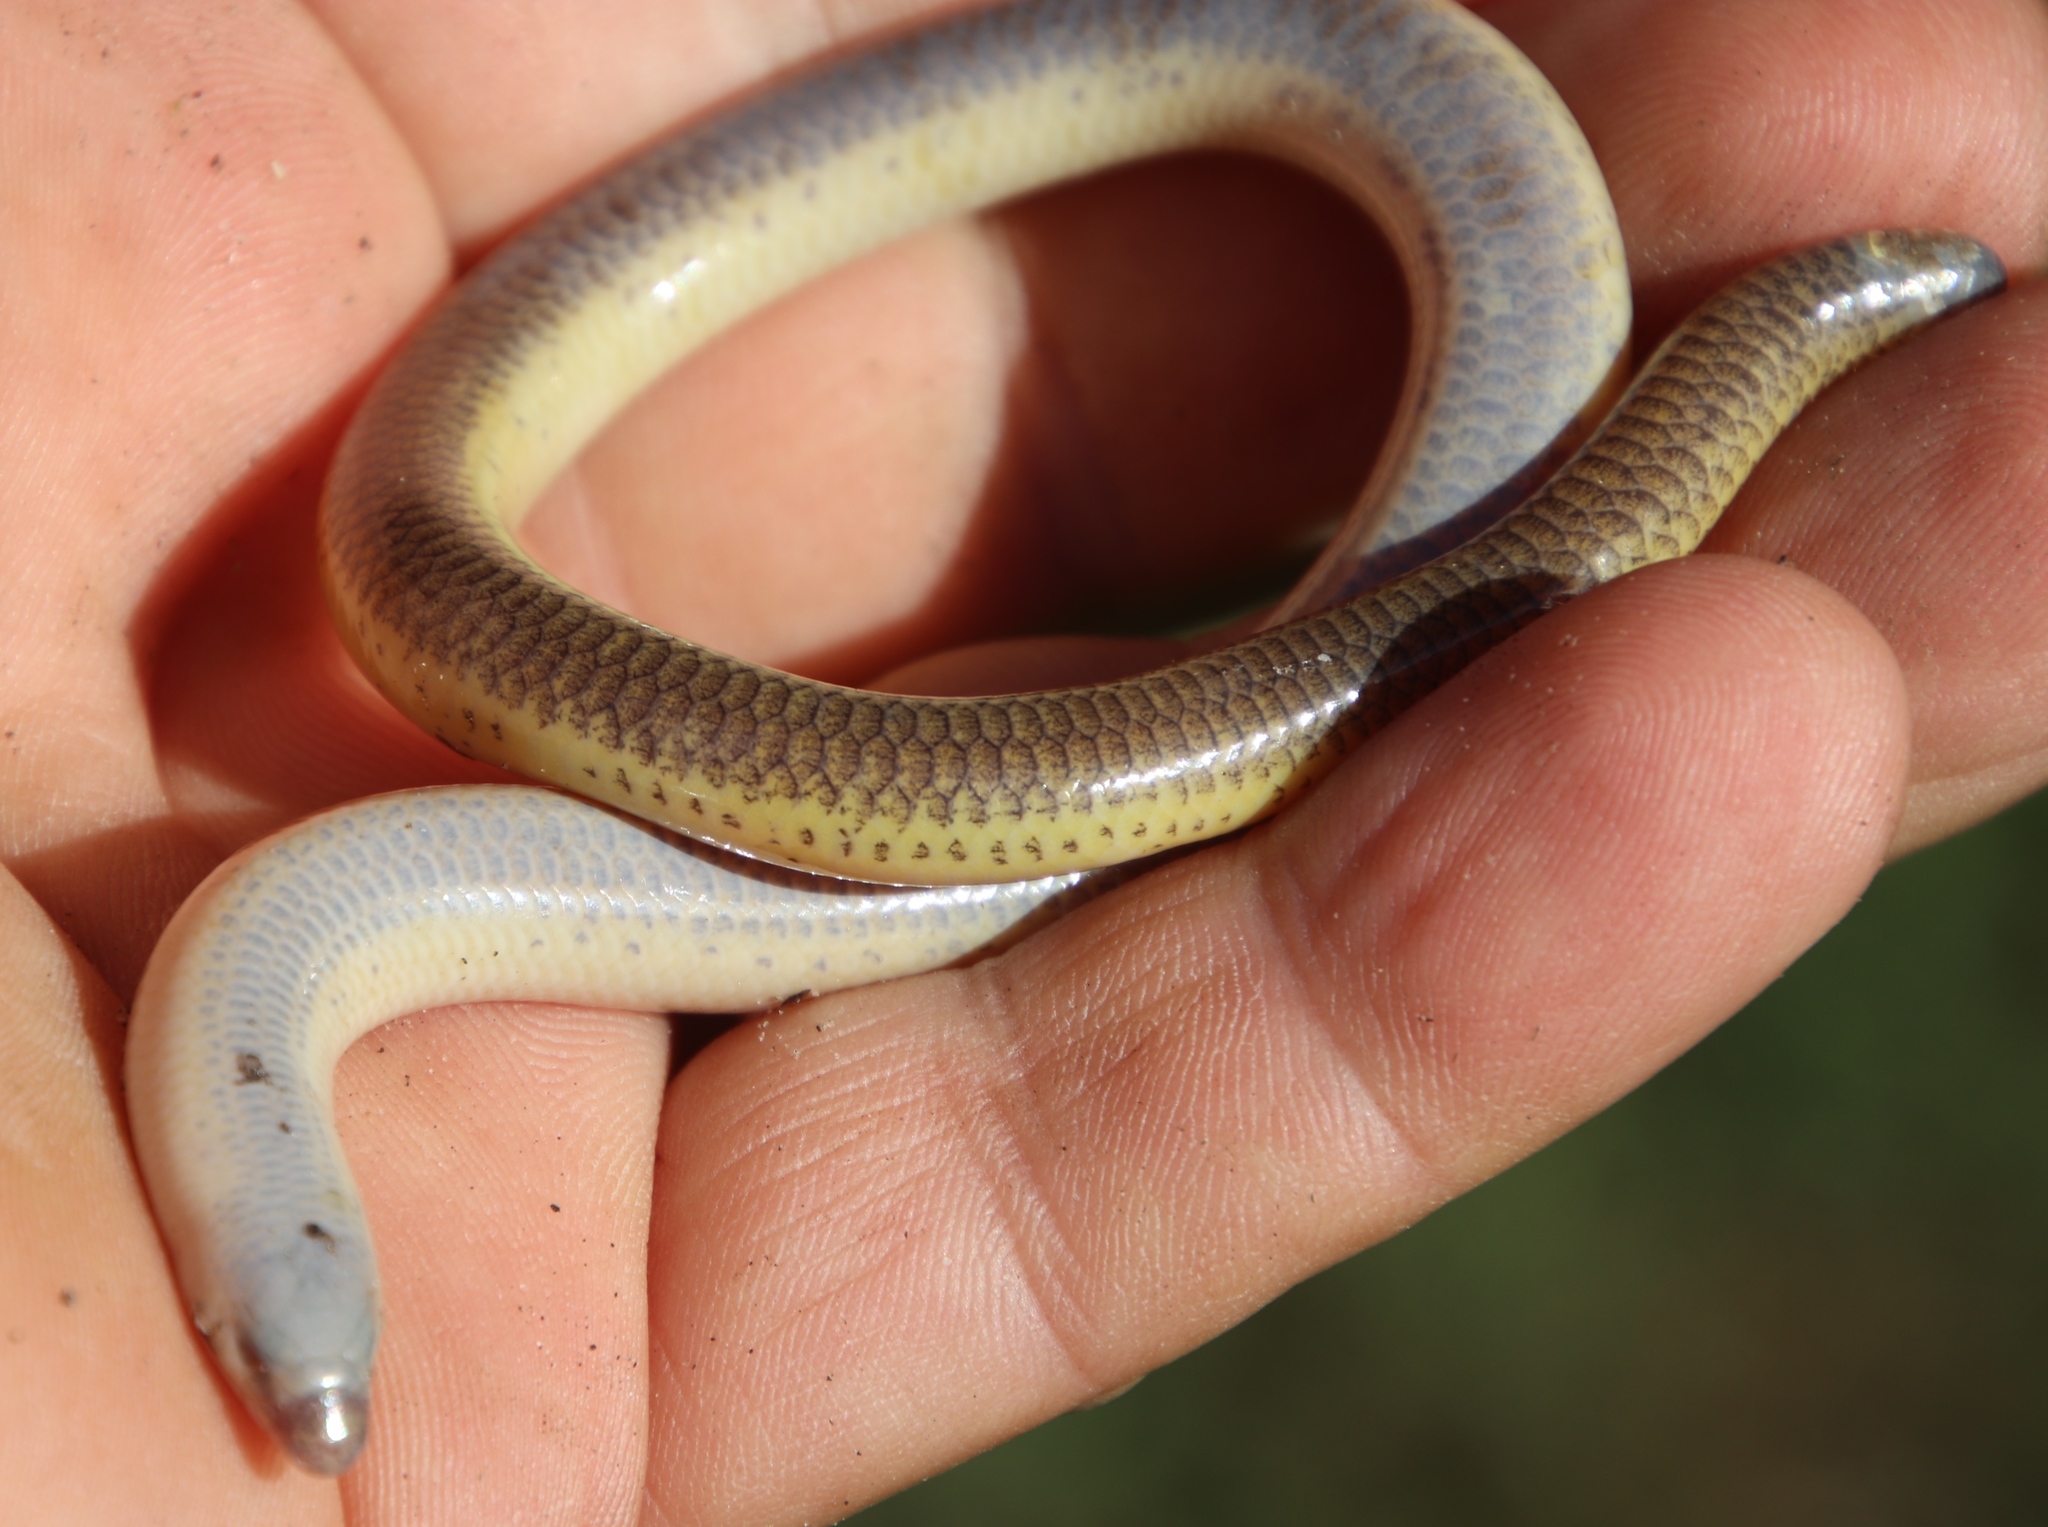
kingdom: Animalia
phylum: Chordata
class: Squamata
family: Scincidae
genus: Acontias
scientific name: Acontias meleagris
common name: Cape legless skink
